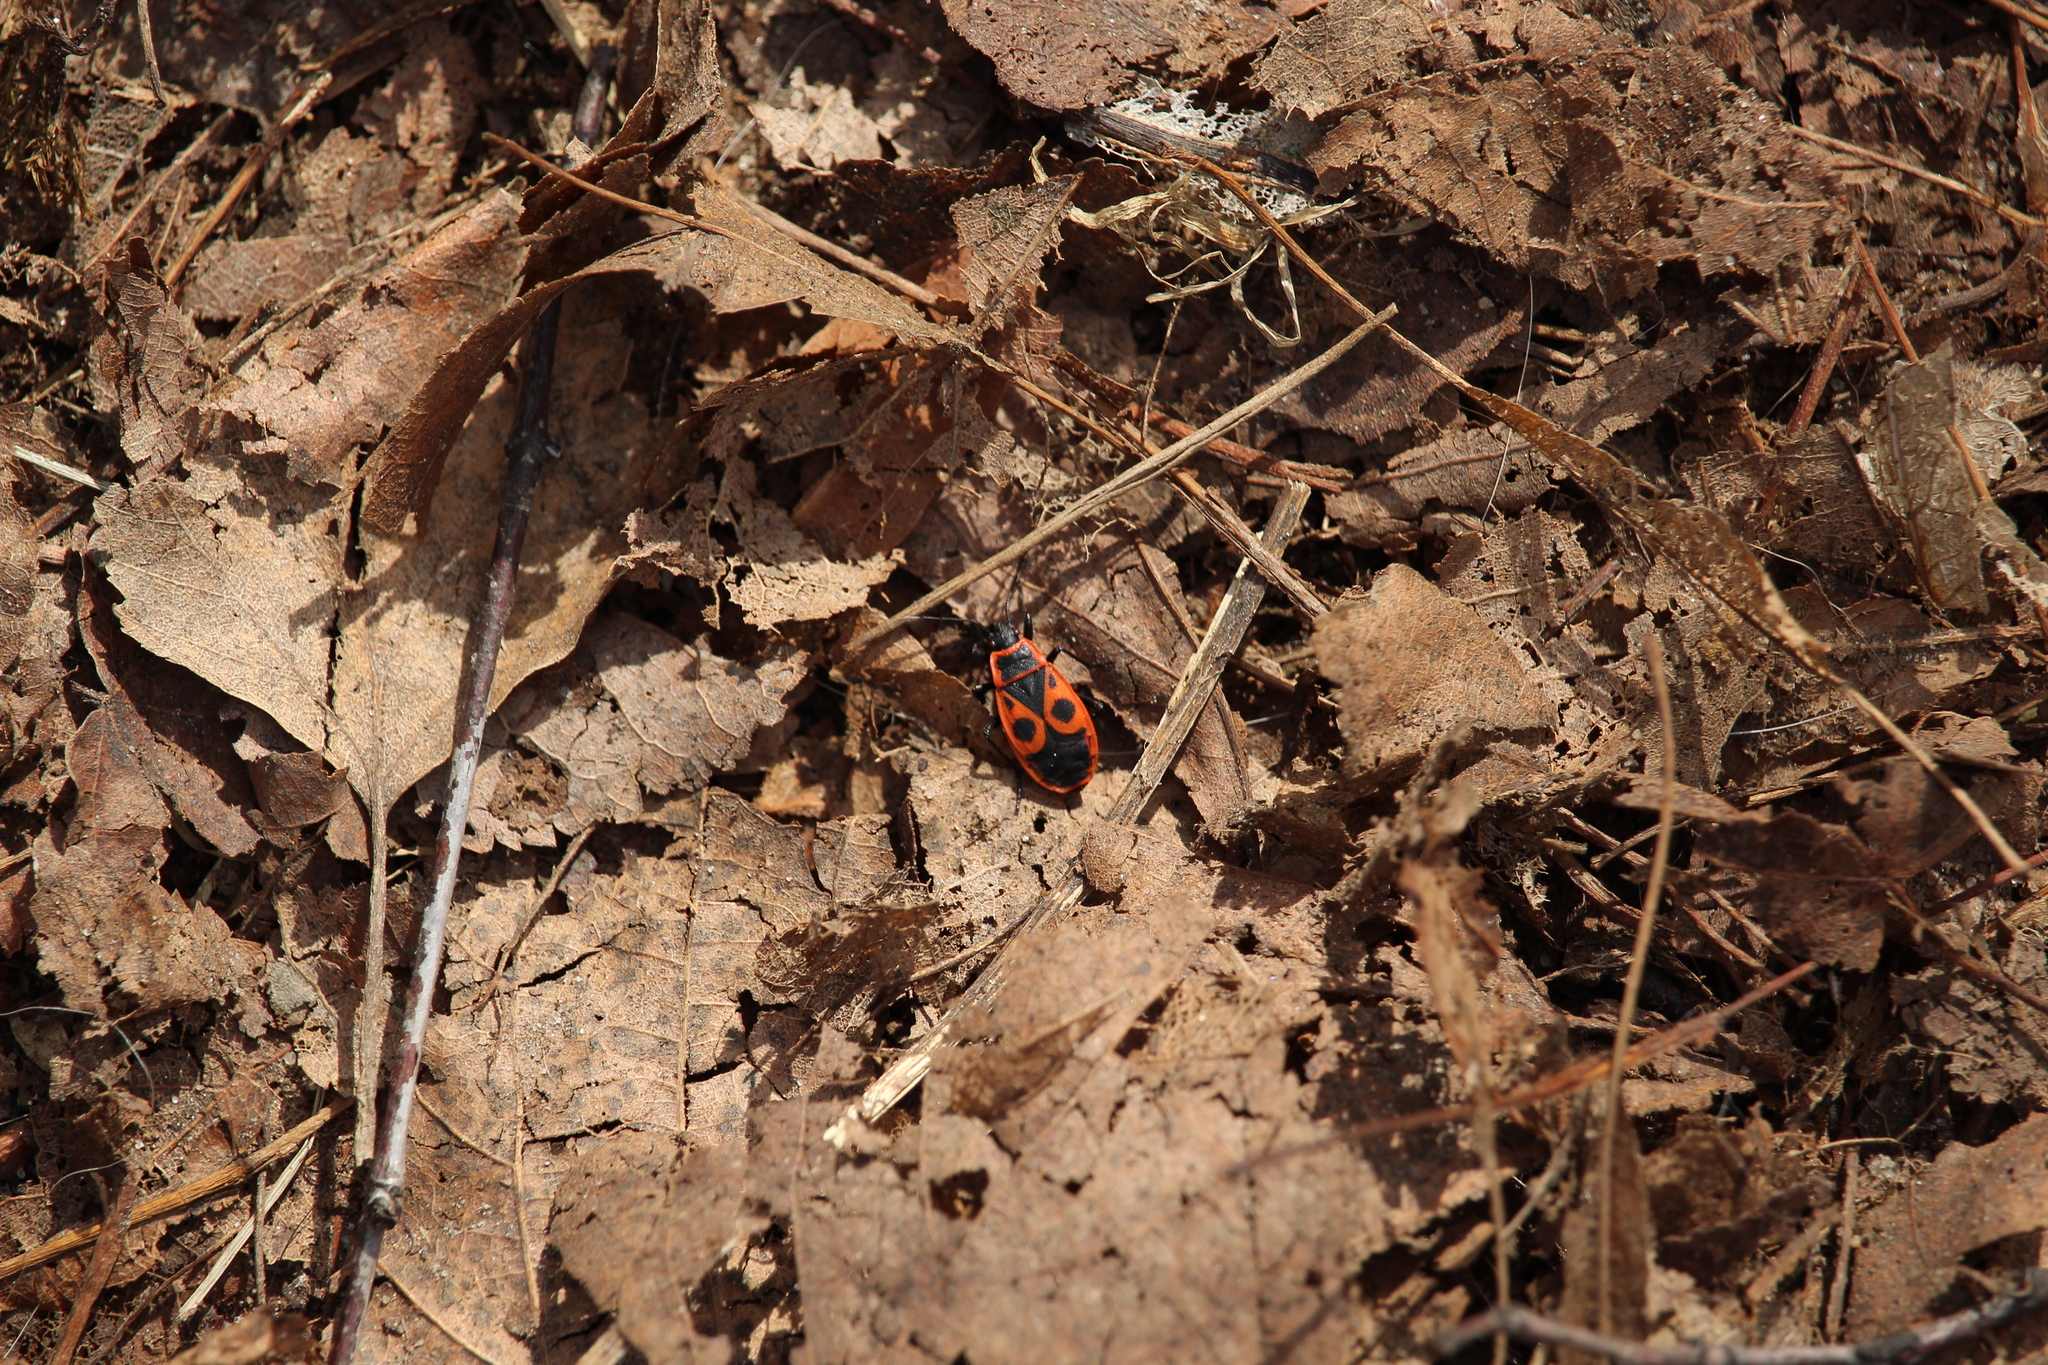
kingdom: Animalia
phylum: Arthropoda
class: Insecta
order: Hemiptera
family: Pyrrhocoridae
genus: Pyrrhocoris
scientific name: Pyrrhocoris apterus
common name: Firebug
